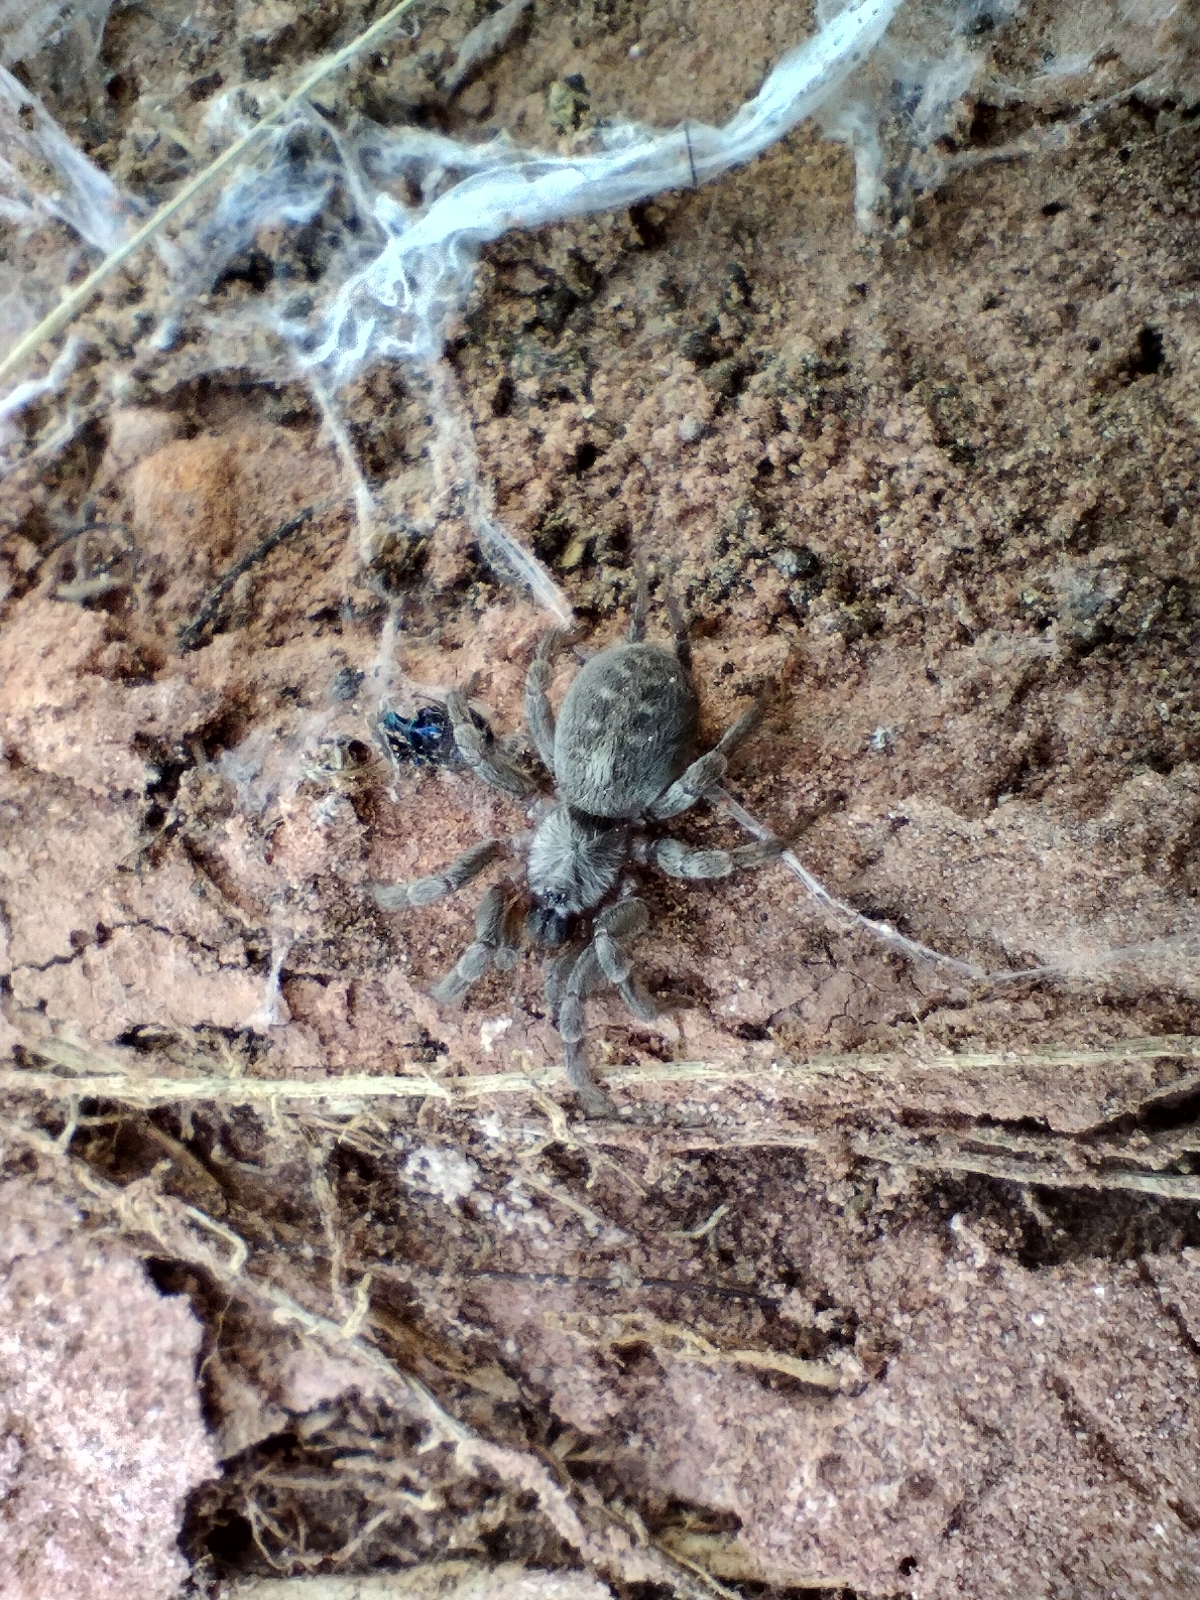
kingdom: Animalia
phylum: Arthropoda
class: Arachnida
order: Araneae
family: Ischnothelidae
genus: Ischnothele
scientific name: Ischnothele annulata
